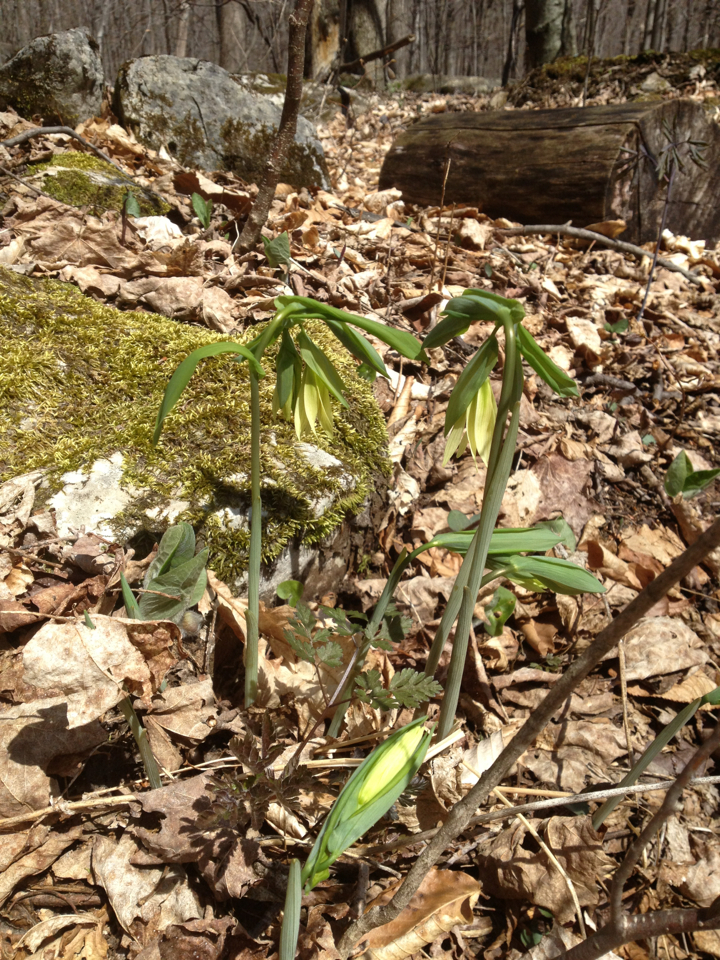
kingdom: Plantae
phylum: Tracheophyta
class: Liliopsida
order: Liliales
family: Colchicaceae
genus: Uvularia
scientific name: Uvularia grandiflora
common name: Bellwort
